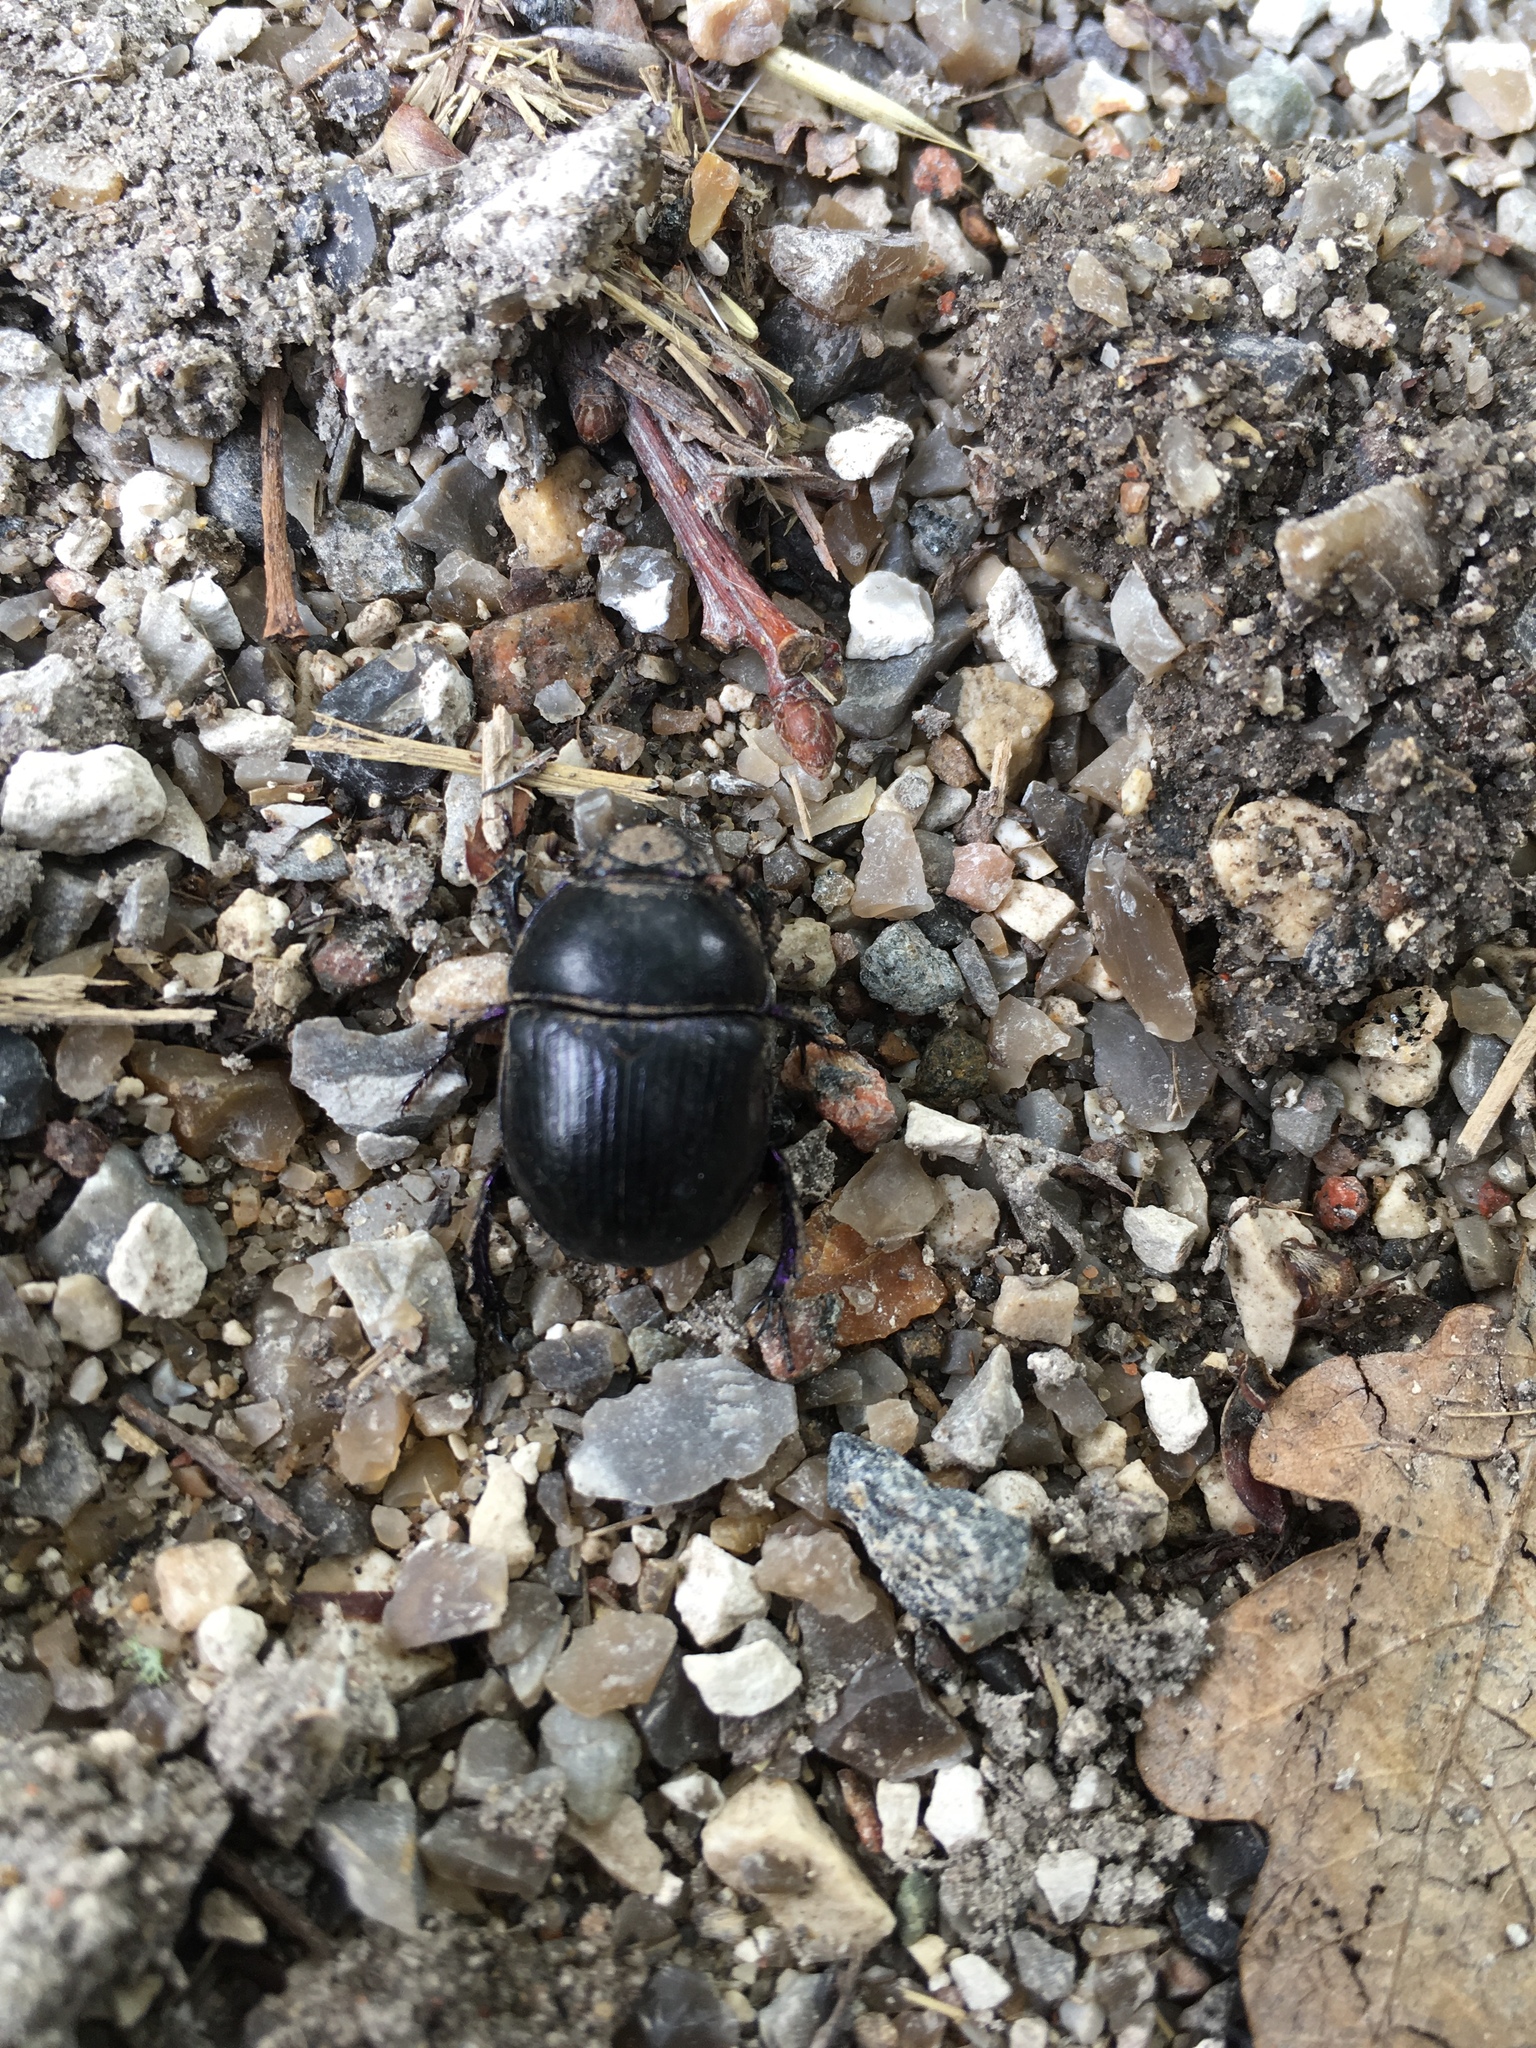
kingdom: Animalia
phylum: Arthropoda
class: Insecta
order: Coleoptera
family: Geotrupidae
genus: Geotrupes
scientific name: Geotrupes stercorarius
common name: Earth-boring dung beetle
